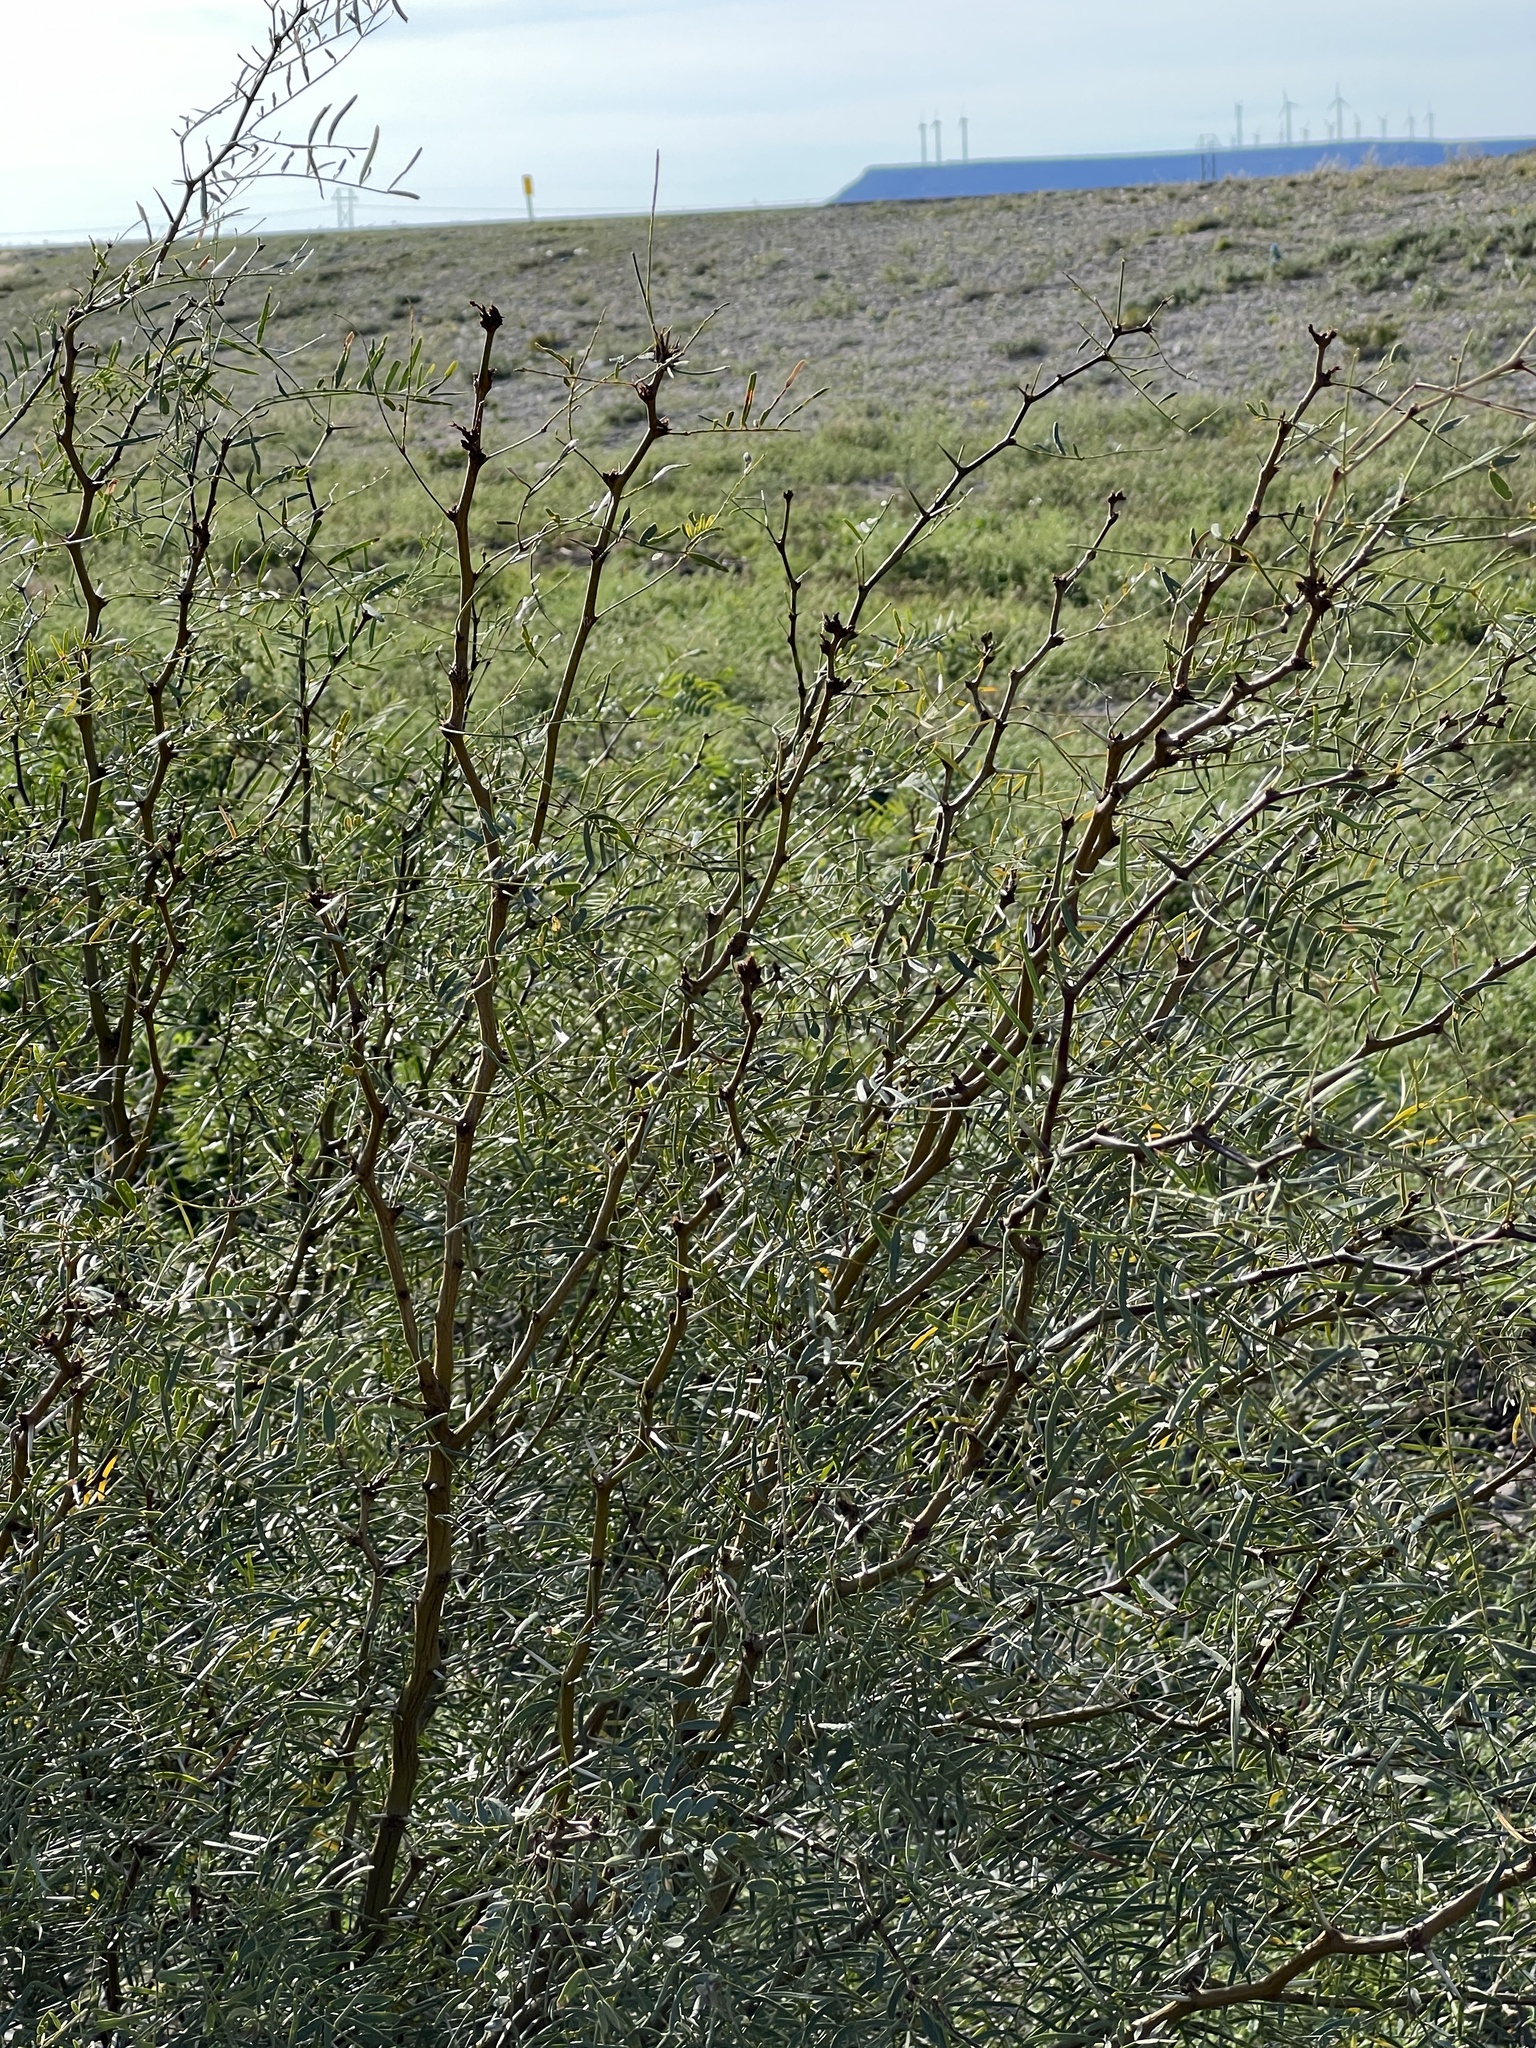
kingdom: Plantae
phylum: Tracheophyta
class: Magnoliopsida
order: Fabales
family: Fabaceae
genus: Prosopis
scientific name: Prosopis pubescens
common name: Screw-bean
